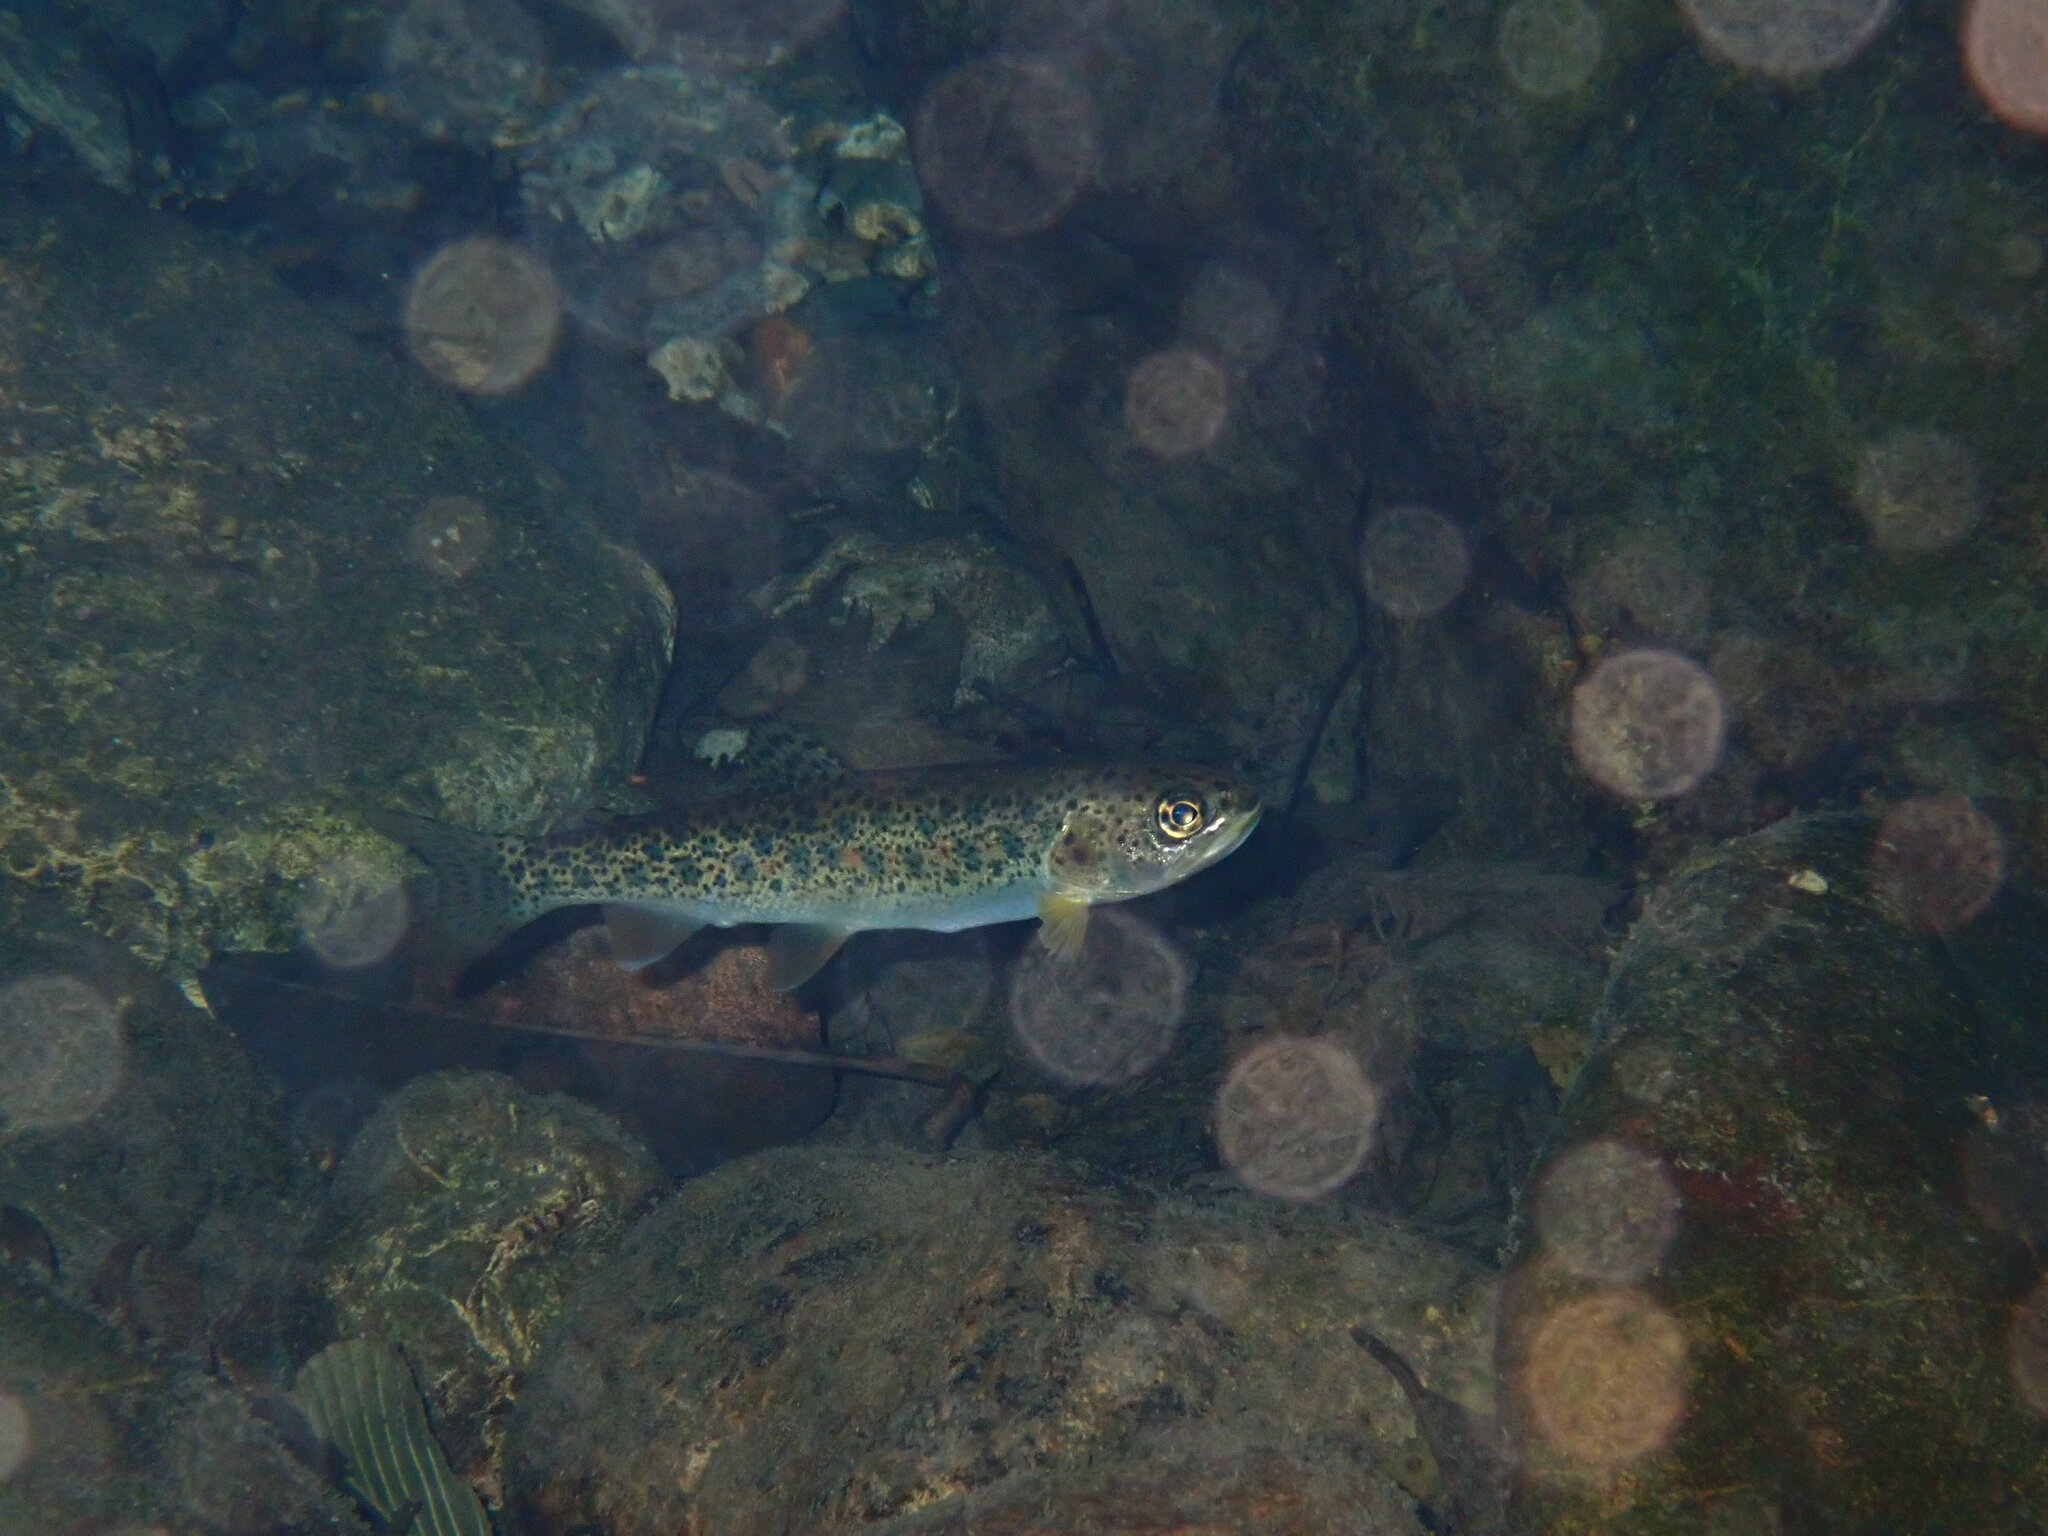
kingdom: Animalia
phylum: Chordata
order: Salmoniformes
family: Salmonidae
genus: Oncorhynchus
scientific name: Oncorhynchus clarkii
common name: Cutthroat trout
